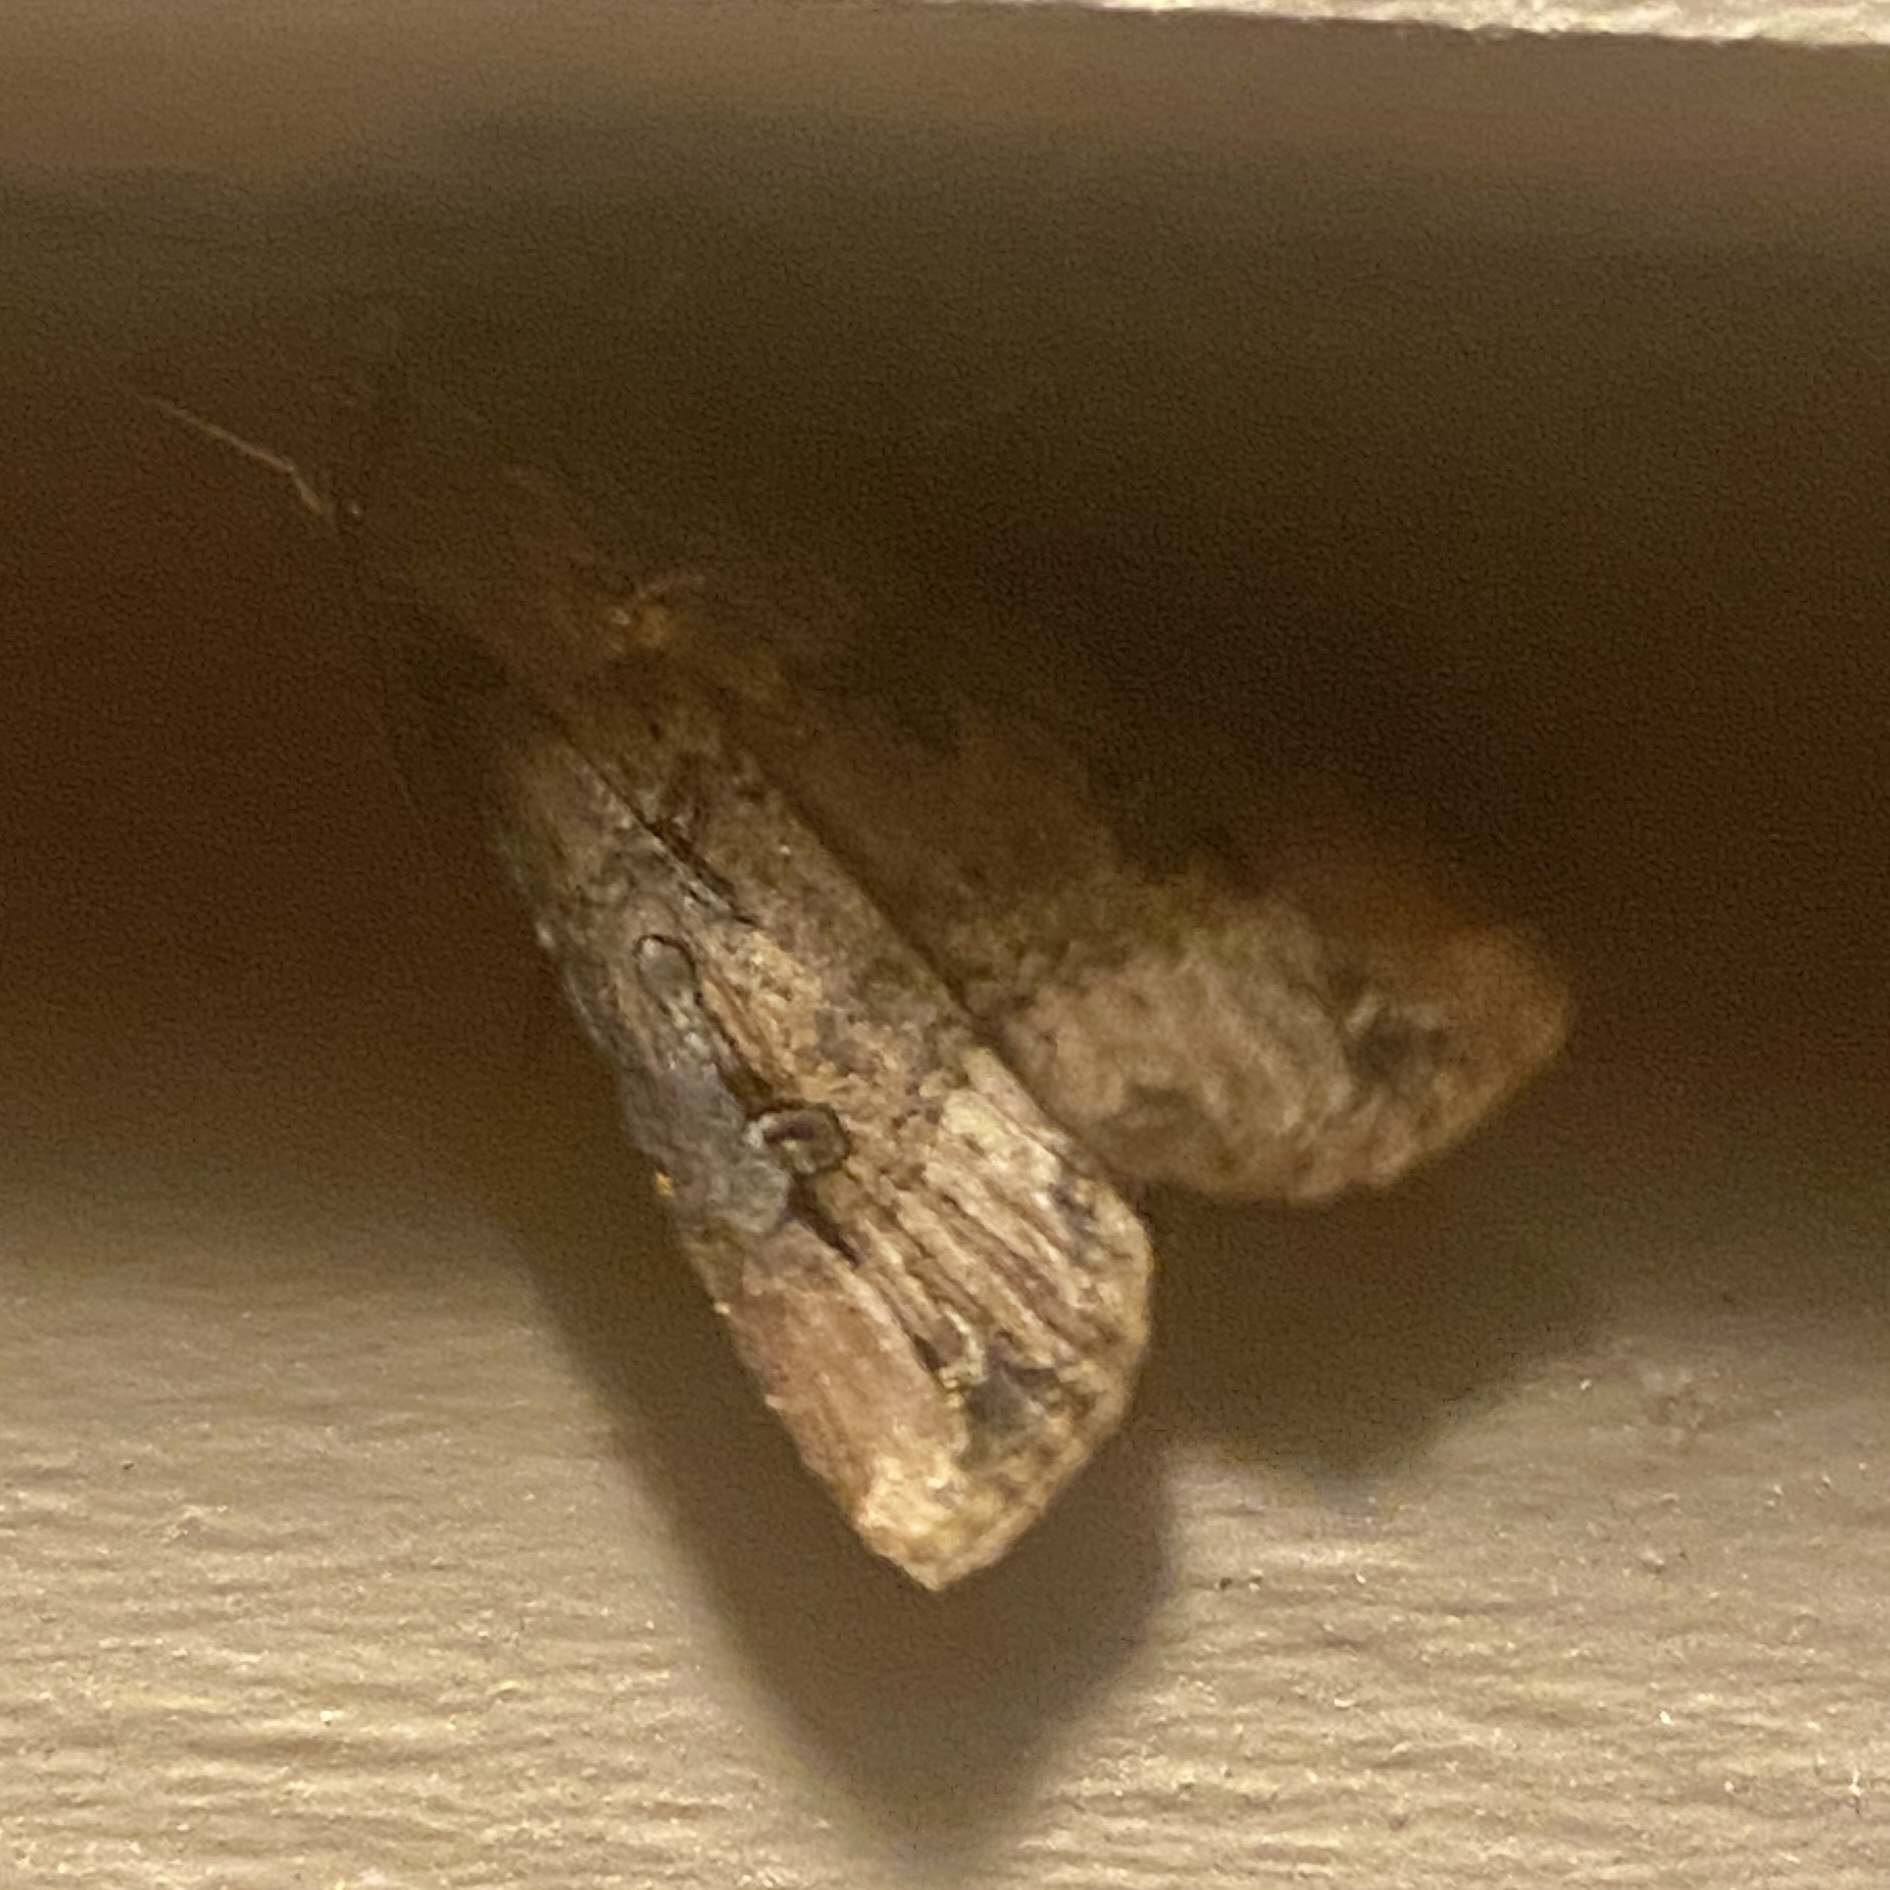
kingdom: Animalia
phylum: Arthropoda
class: Insecta
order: Lepidoptera
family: Noctuidae
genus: Agrotis
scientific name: Agrotis ipsilon
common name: Dark sword-grass
